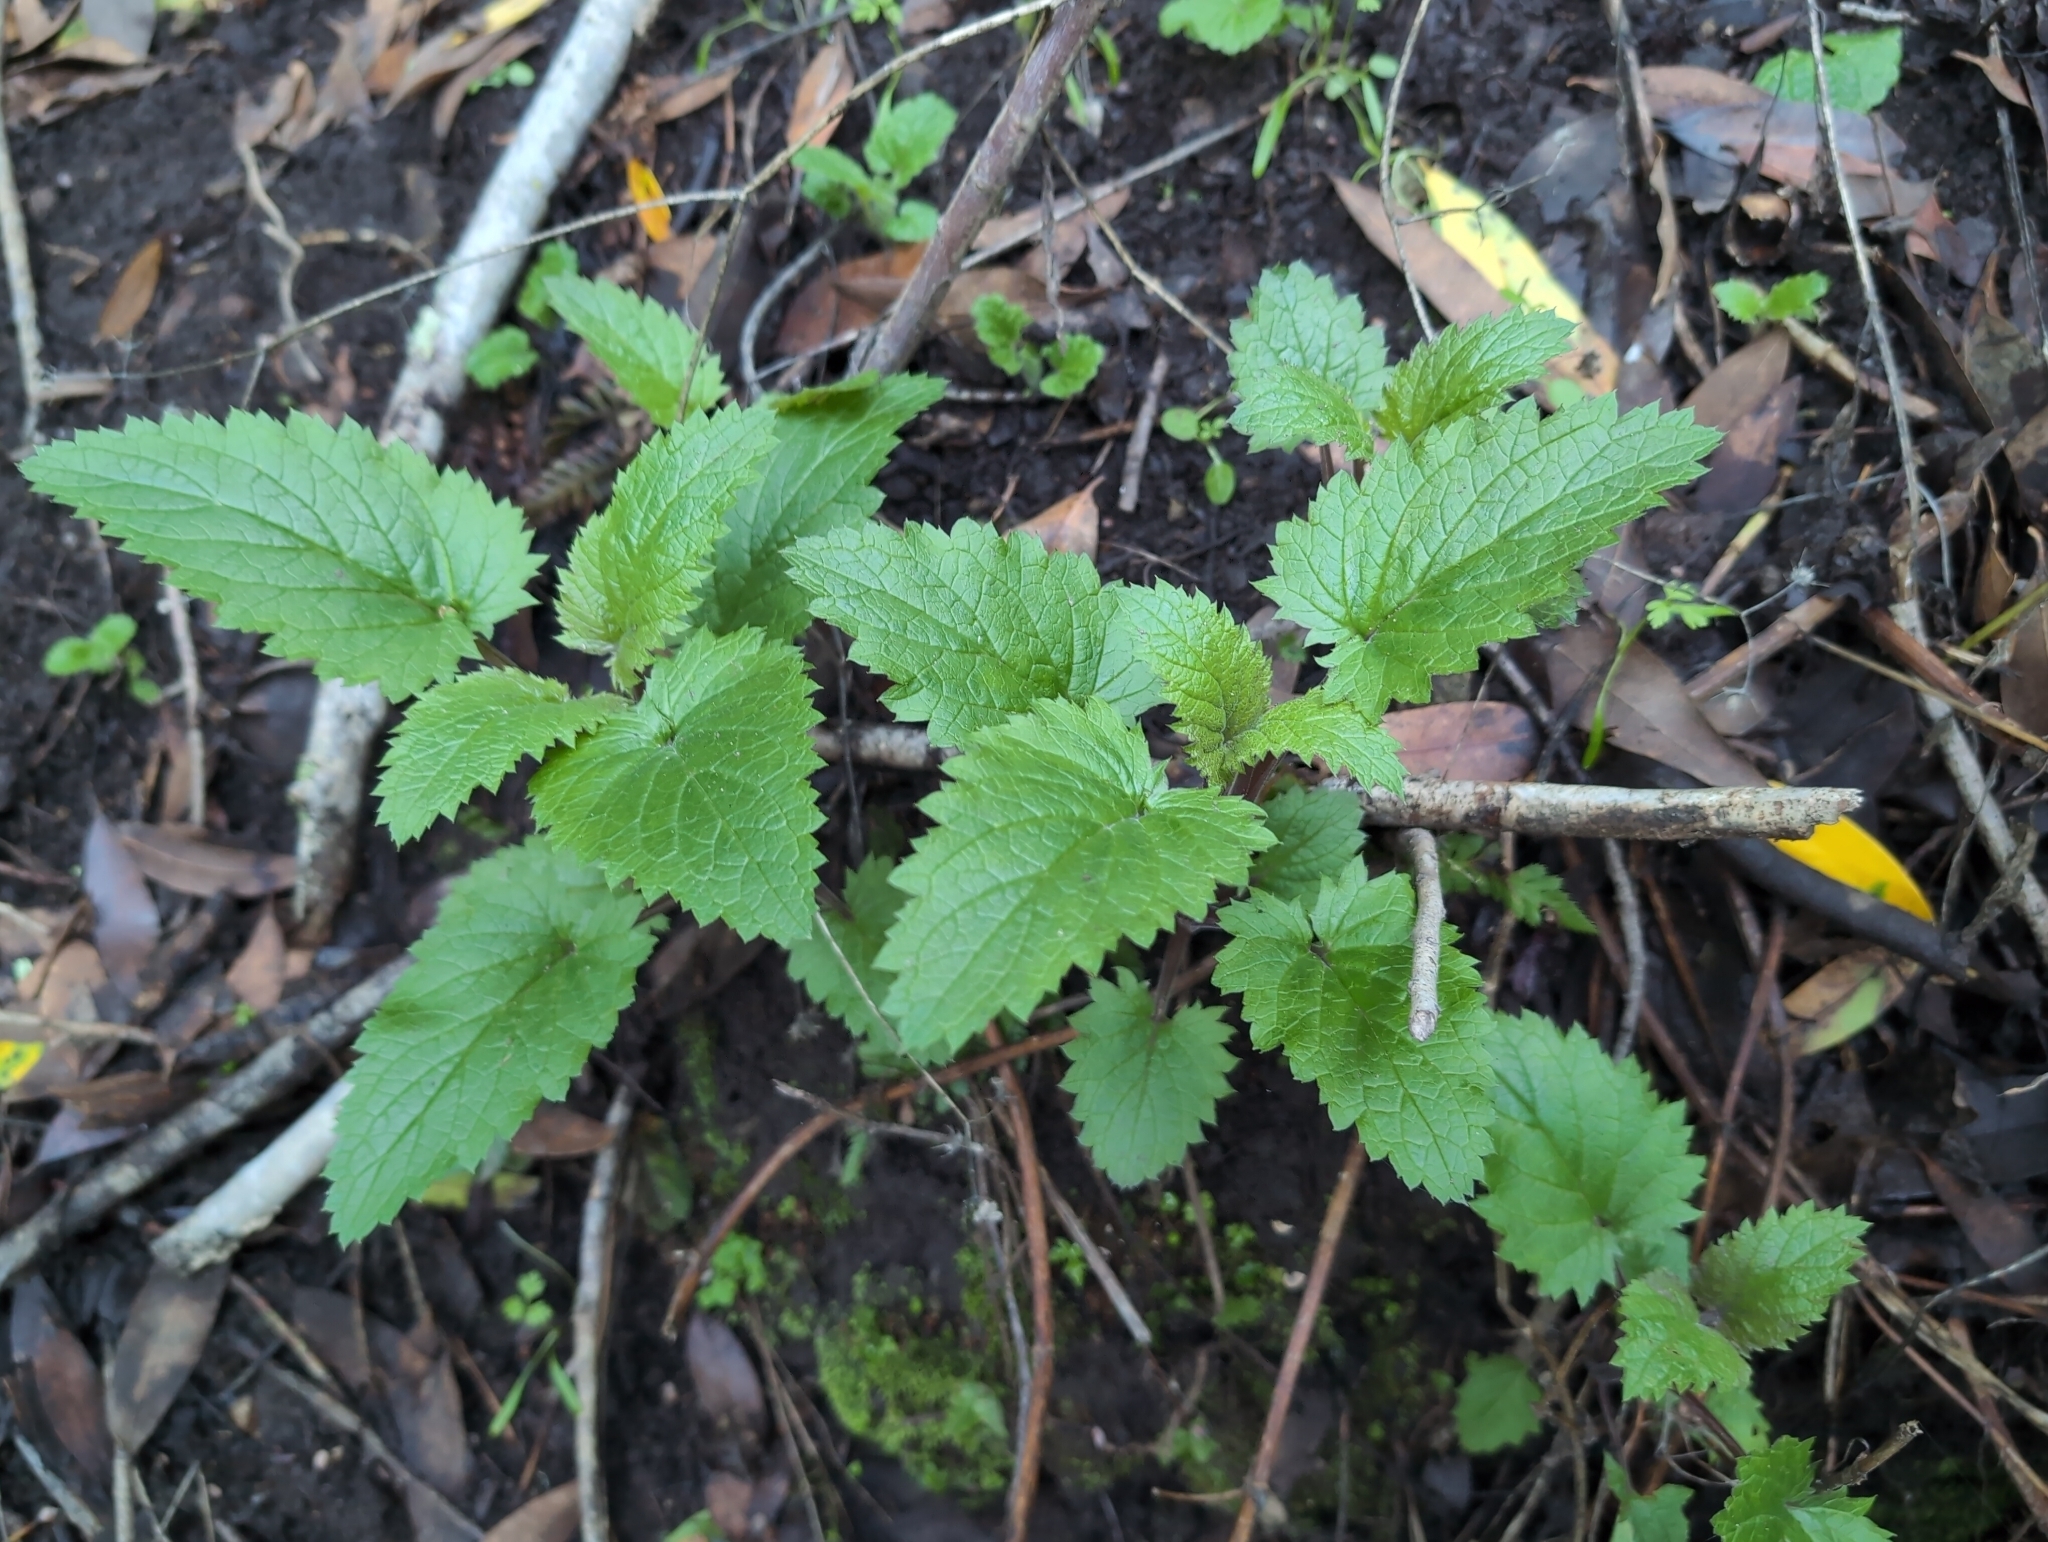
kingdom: Plantae
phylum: Tracheophyta
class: Magnoliopsida
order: Lamiales
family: Scrophulariaceae
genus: Scrophularia
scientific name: Scrophularia californica
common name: California figwort
